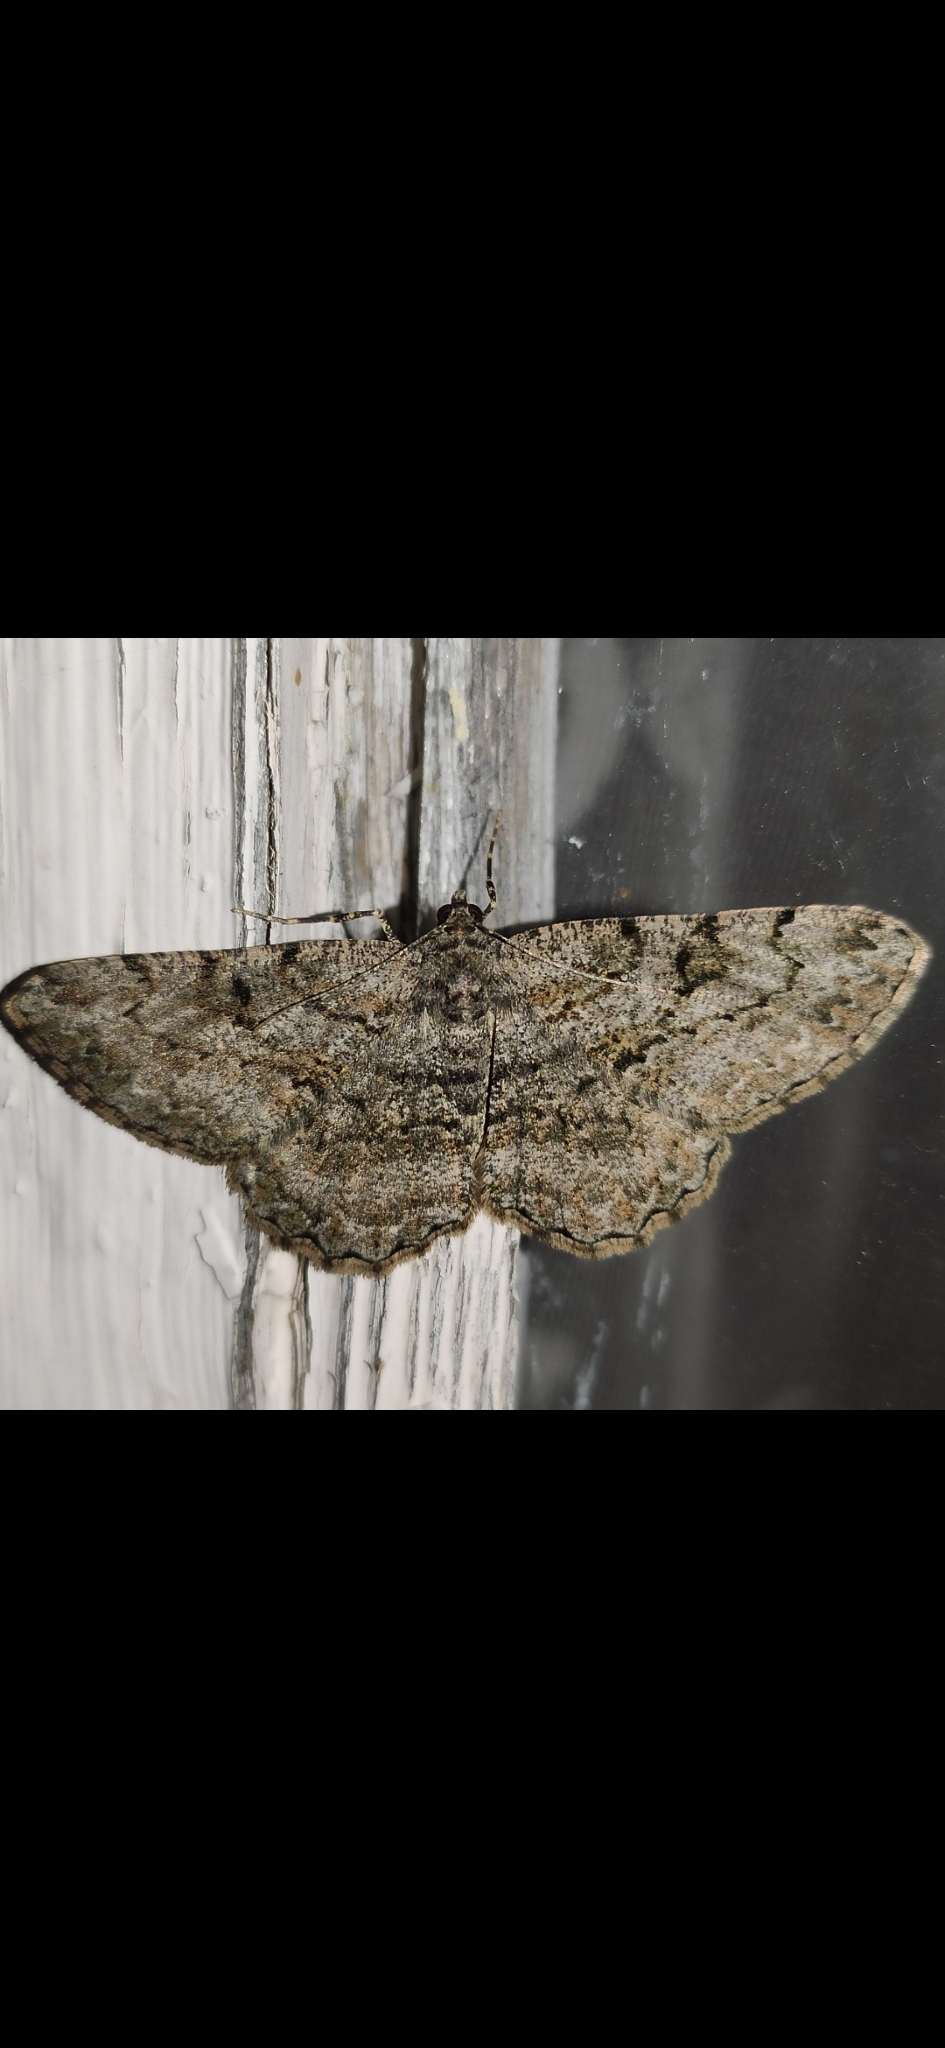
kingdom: Animalia
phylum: Arthropoda
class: Insecta
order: Lepidoptera
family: Geometridae
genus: Peribatodes
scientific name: Peribatodes rhomboidaria
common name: Willow beauty
